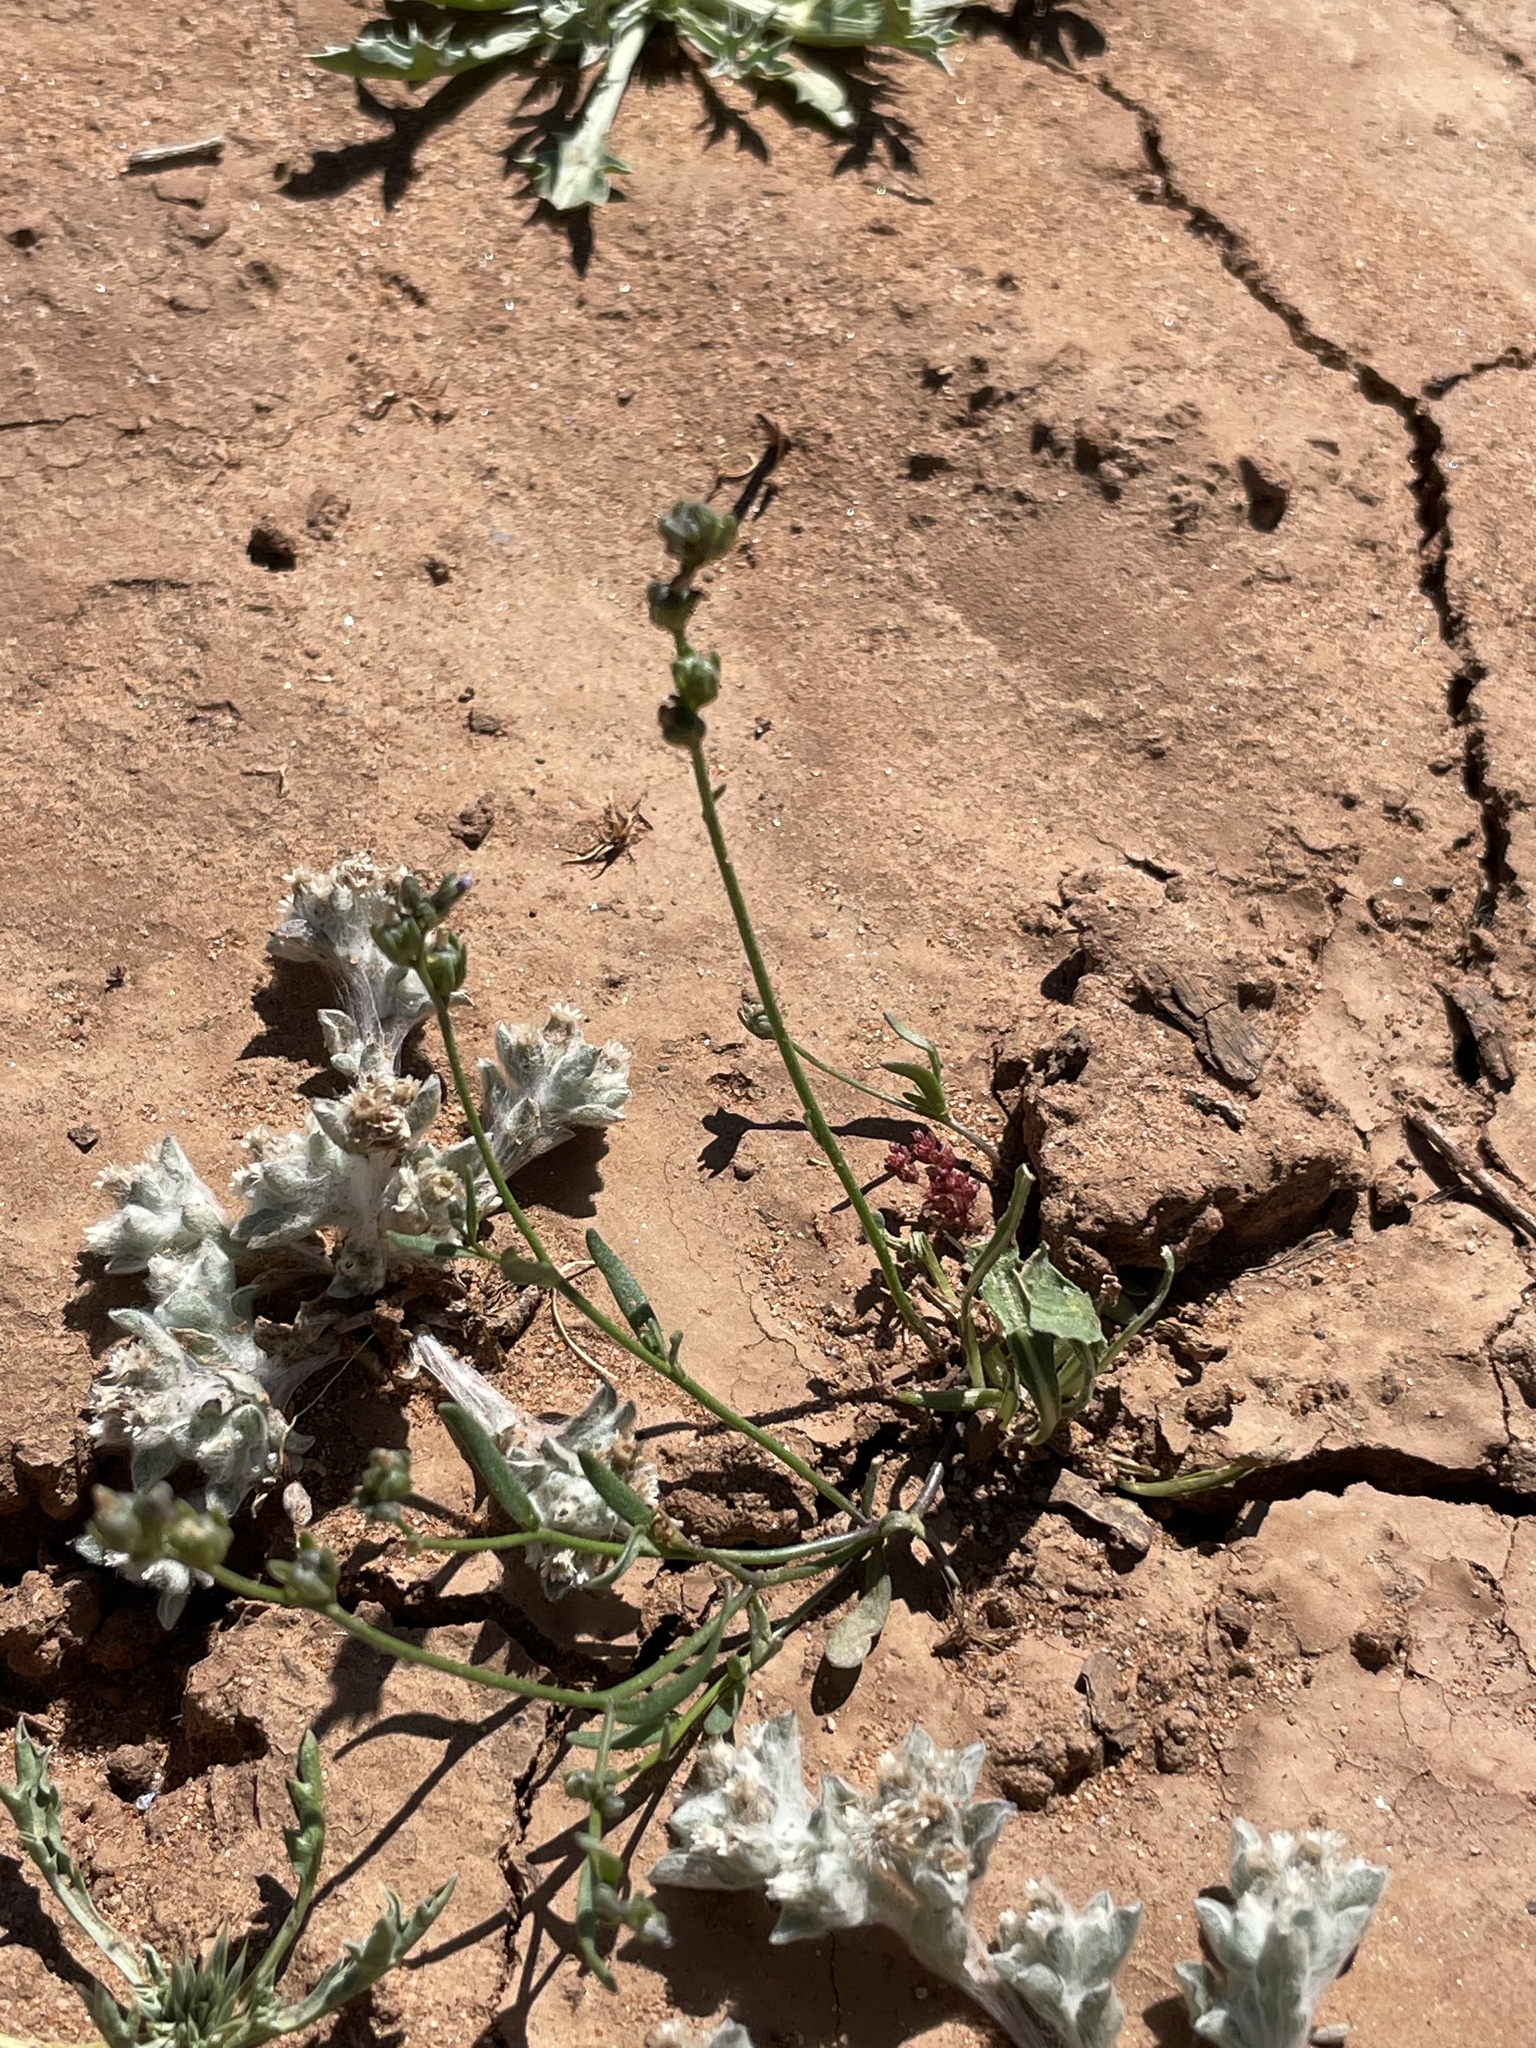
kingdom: Plantae
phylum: Tracheophyta
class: Magnoliopsida
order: Lamiales
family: Plantaginaceae
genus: Nuttallanthus
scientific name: Nuttallanthus texanus
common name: Texas toadflax
